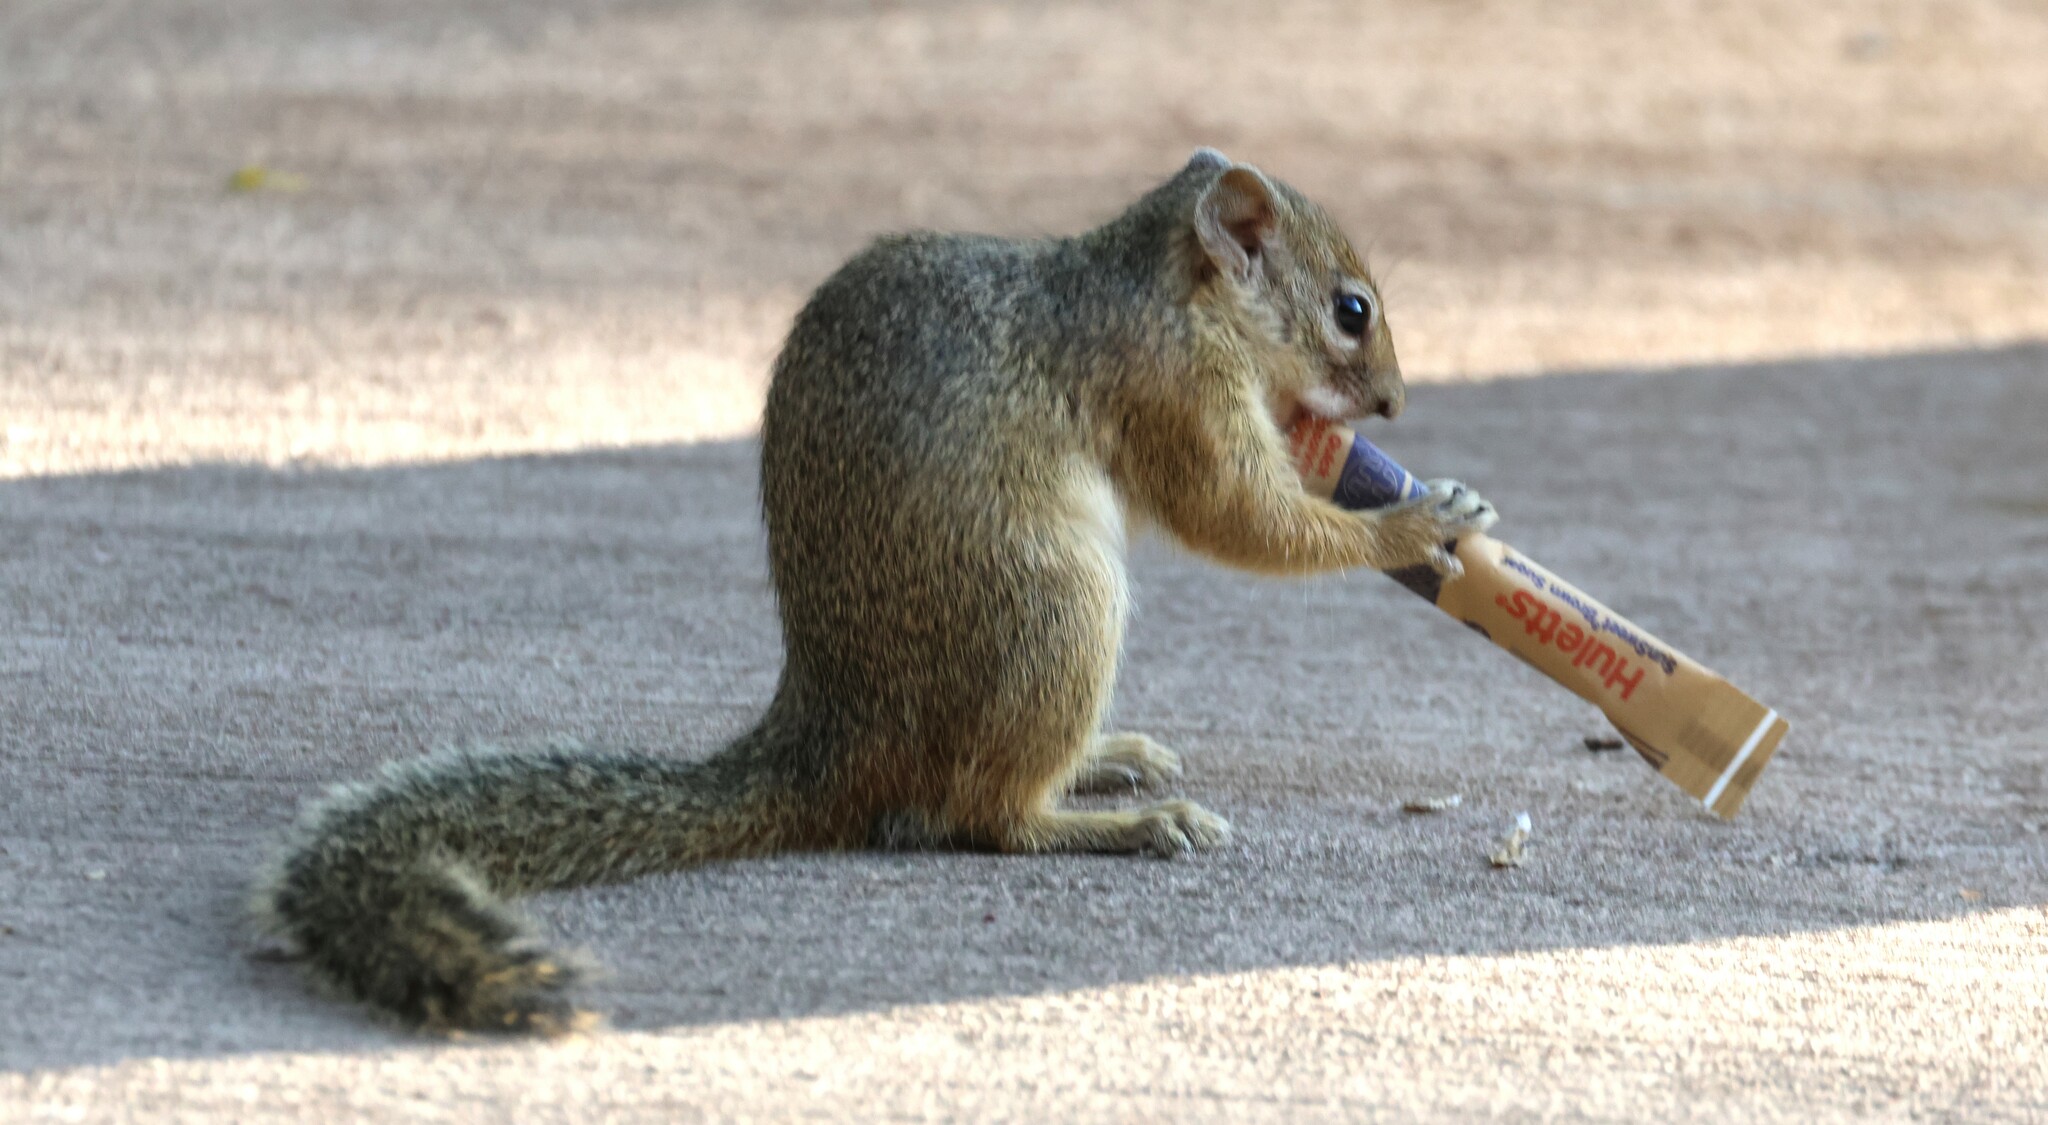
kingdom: Animalia
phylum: Chordata
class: Mammalia
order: Rodentia
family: Sciuridae
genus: Paraxerus
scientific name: Paraxerus cepapi
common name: Smith's bush squirrel
